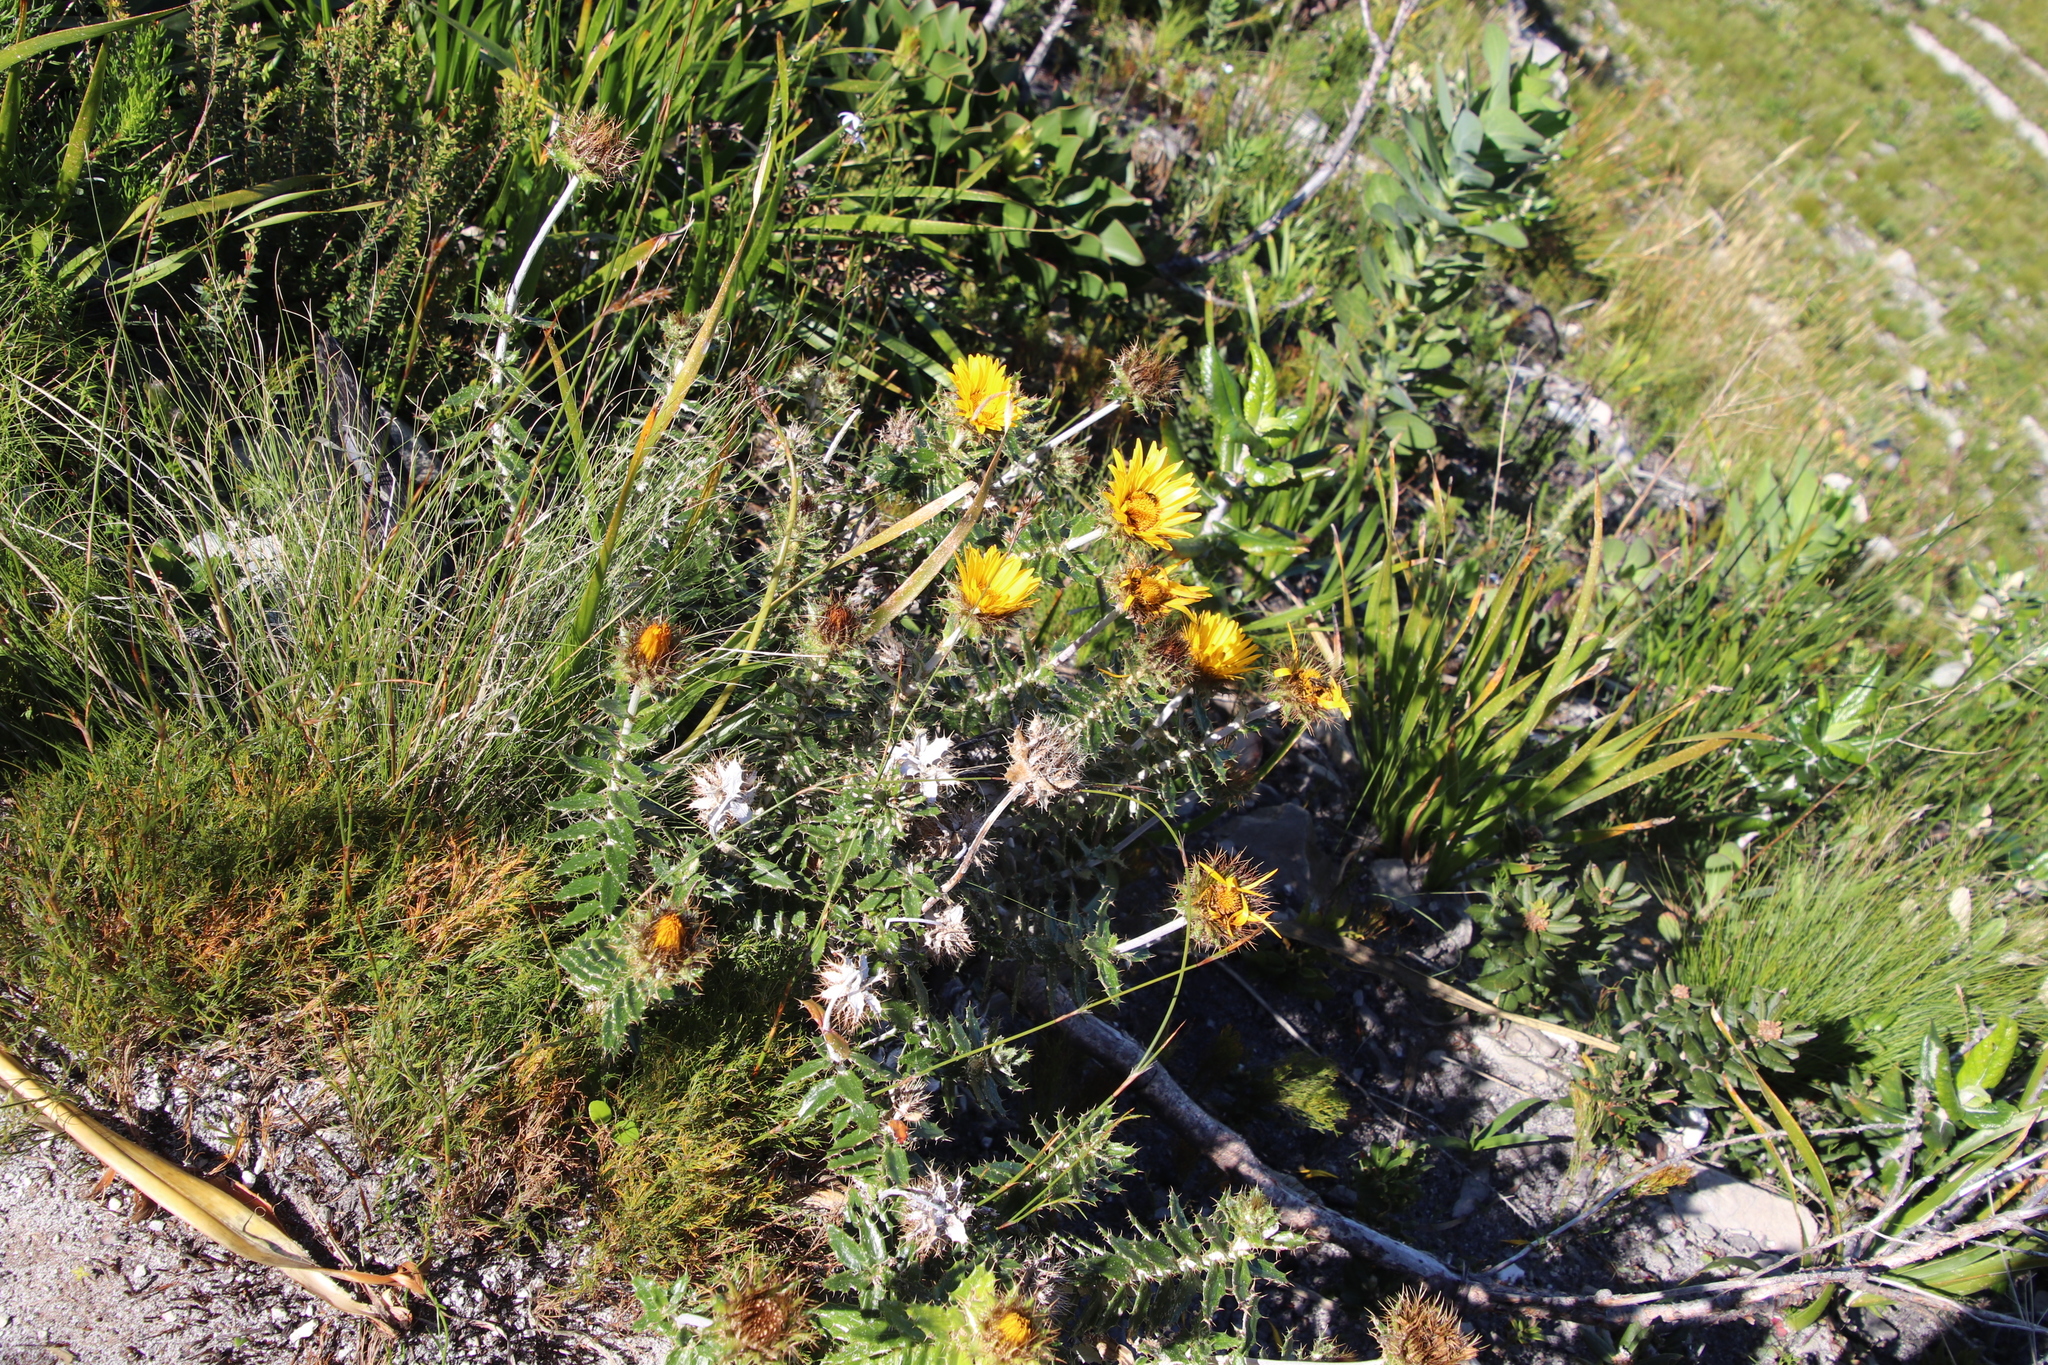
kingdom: Plantae
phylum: Tracheophyta
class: Magnoliopsida
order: Asterales
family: Asteraceae
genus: Berkheya
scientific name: Berkheya barbata
